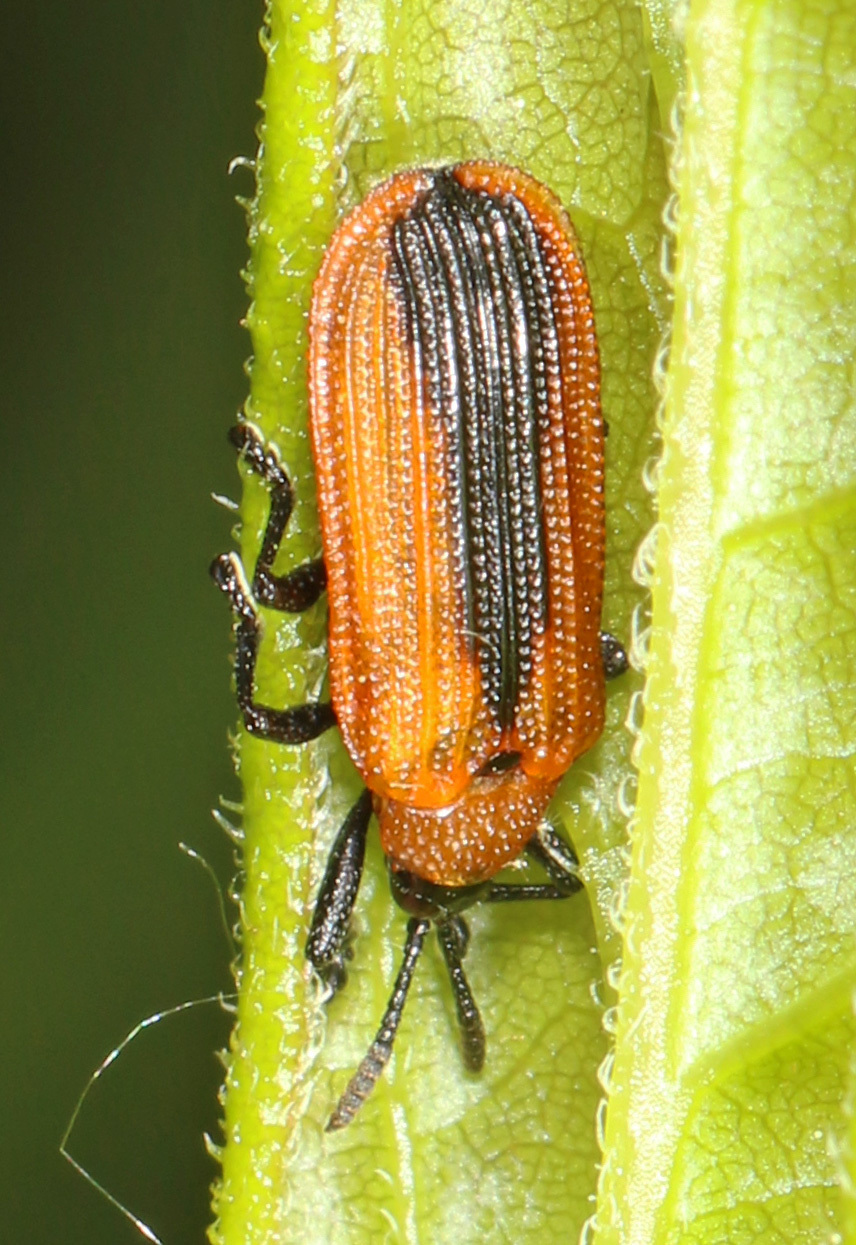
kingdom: Animalia
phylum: Arthropoda
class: Insecta
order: Coleoptera
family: Chrysomelidae
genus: Odontota
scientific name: Odontota dorsalis
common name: Locust leaf-miner beetle
